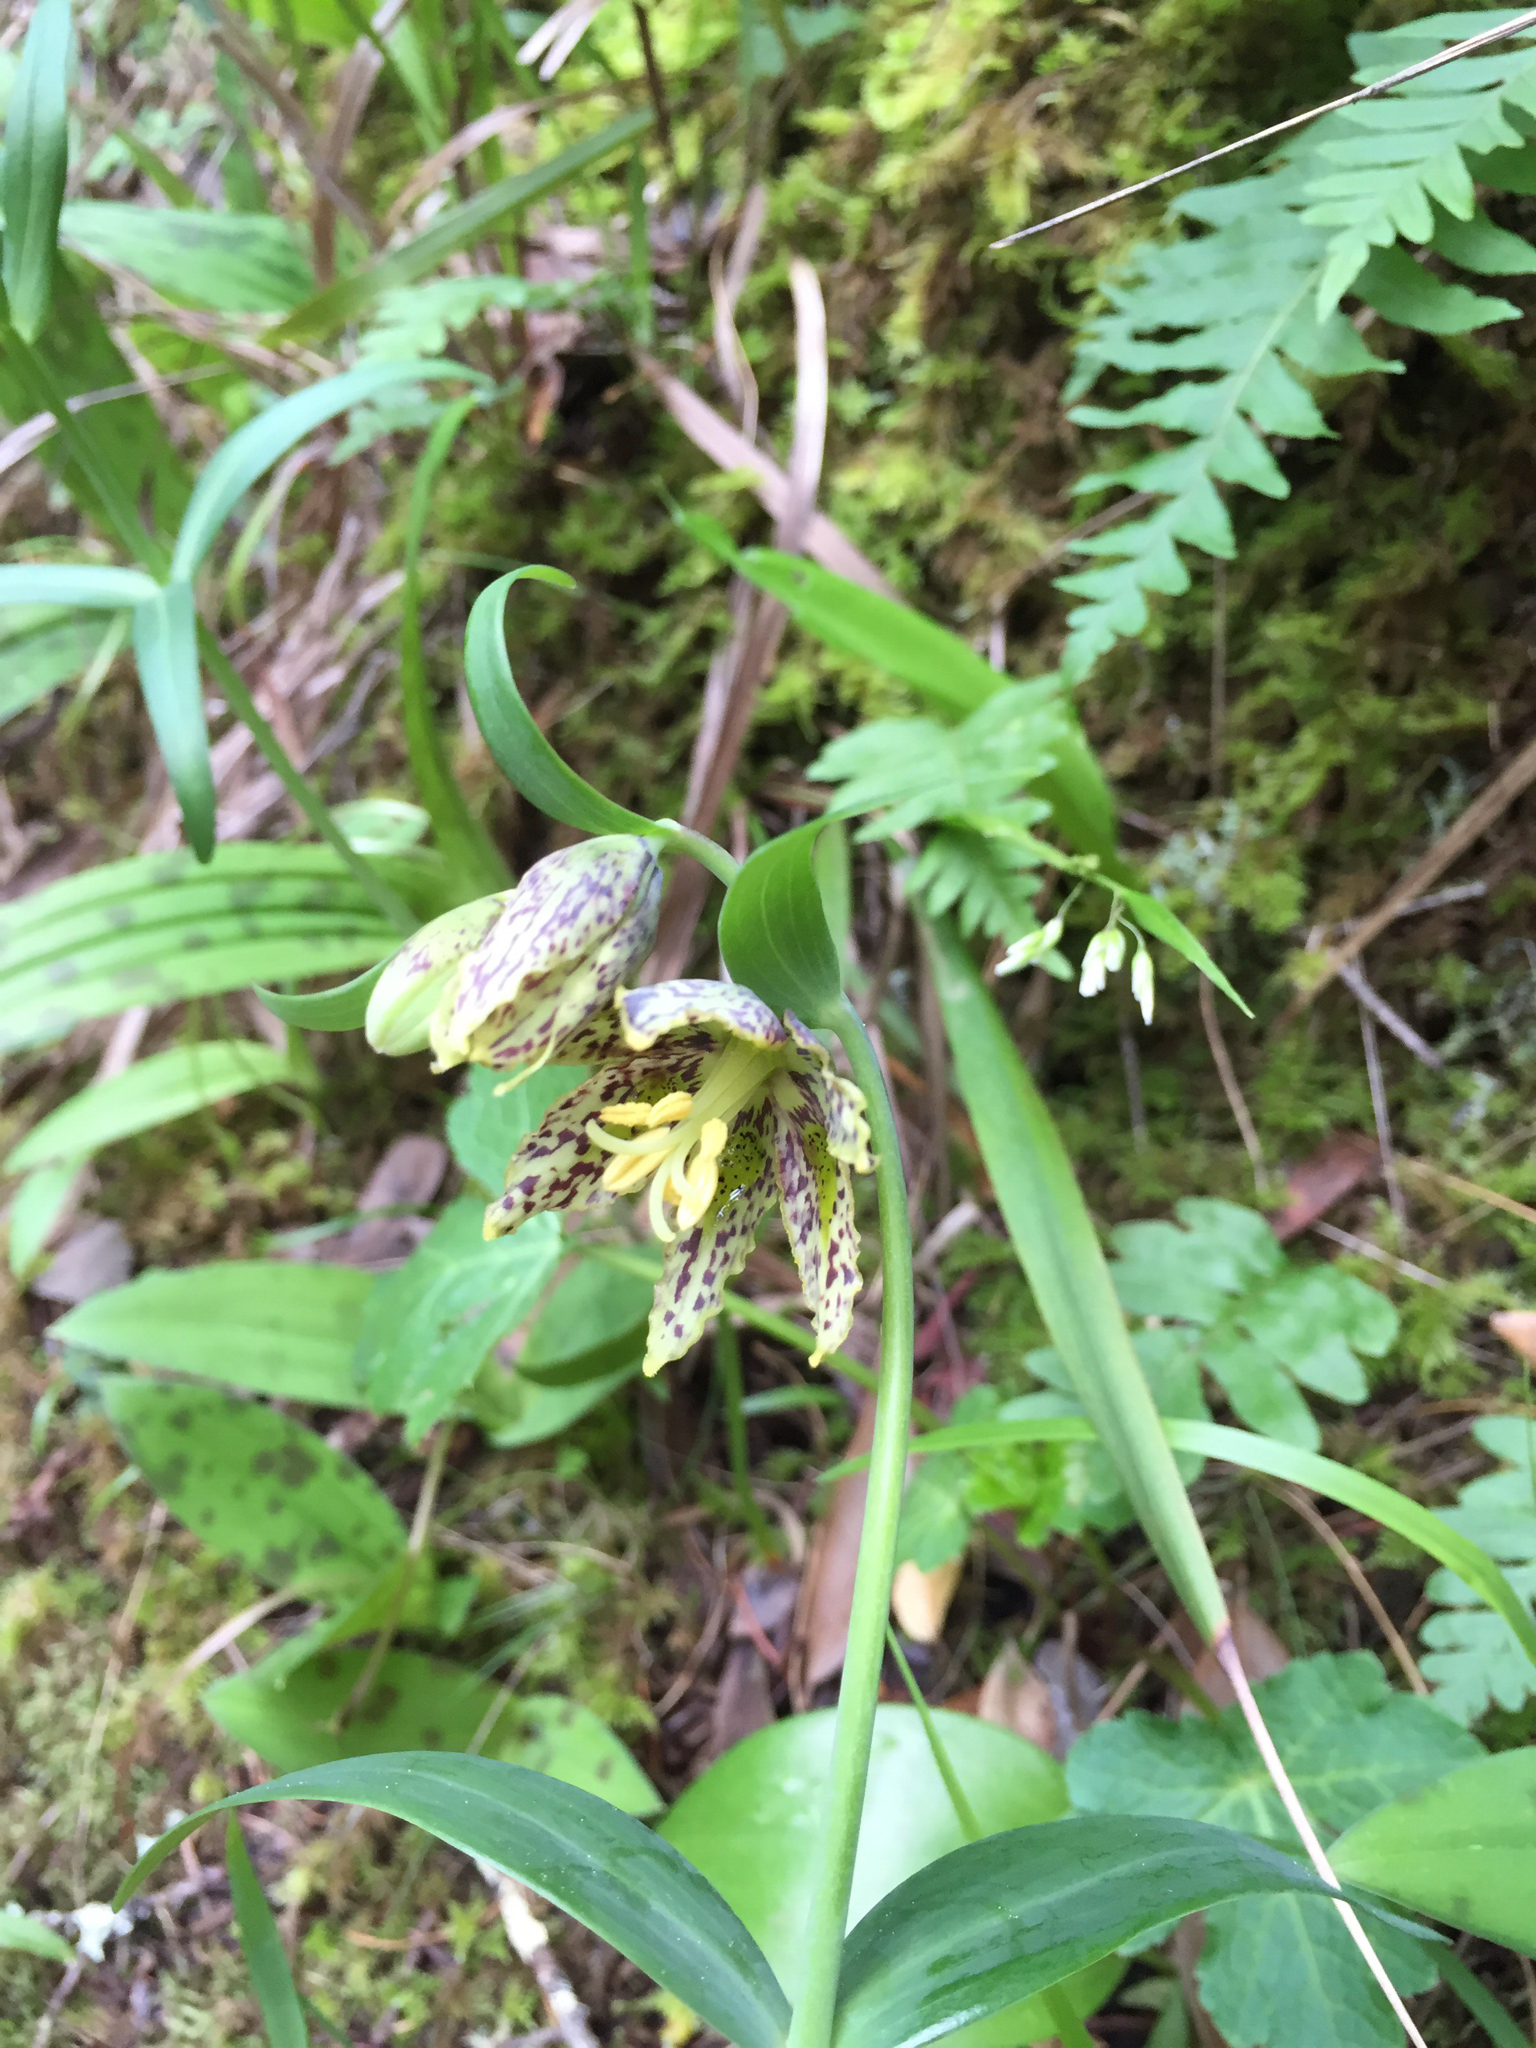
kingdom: Plantae
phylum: Tracheophyta
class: Liliopsida
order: Liliales
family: Liliaceae
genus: Fritillaria
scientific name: Fritillaria affinis
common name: Ojai fritillary
